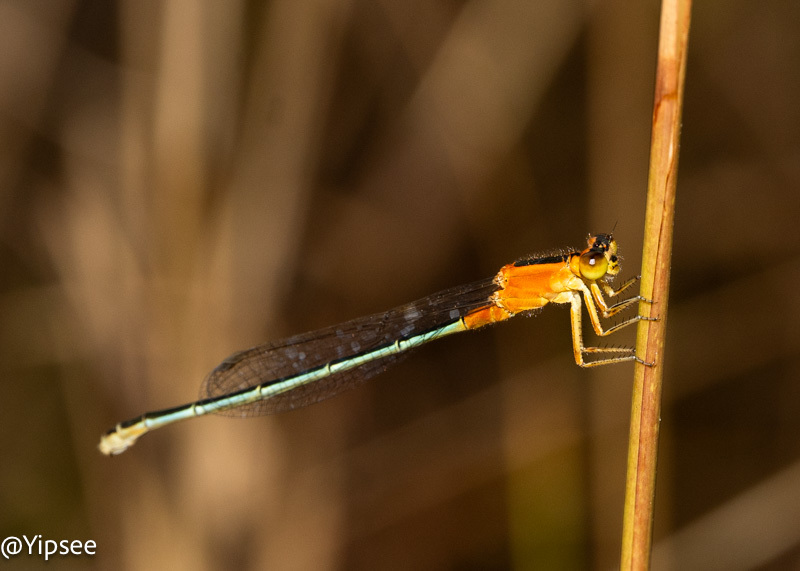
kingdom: Animalia
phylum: Arthropoda
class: Insecta
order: Odonata
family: Coenagrionidae
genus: Ischnura
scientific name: Ischnura senegalensis
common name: Tropical bluetail
